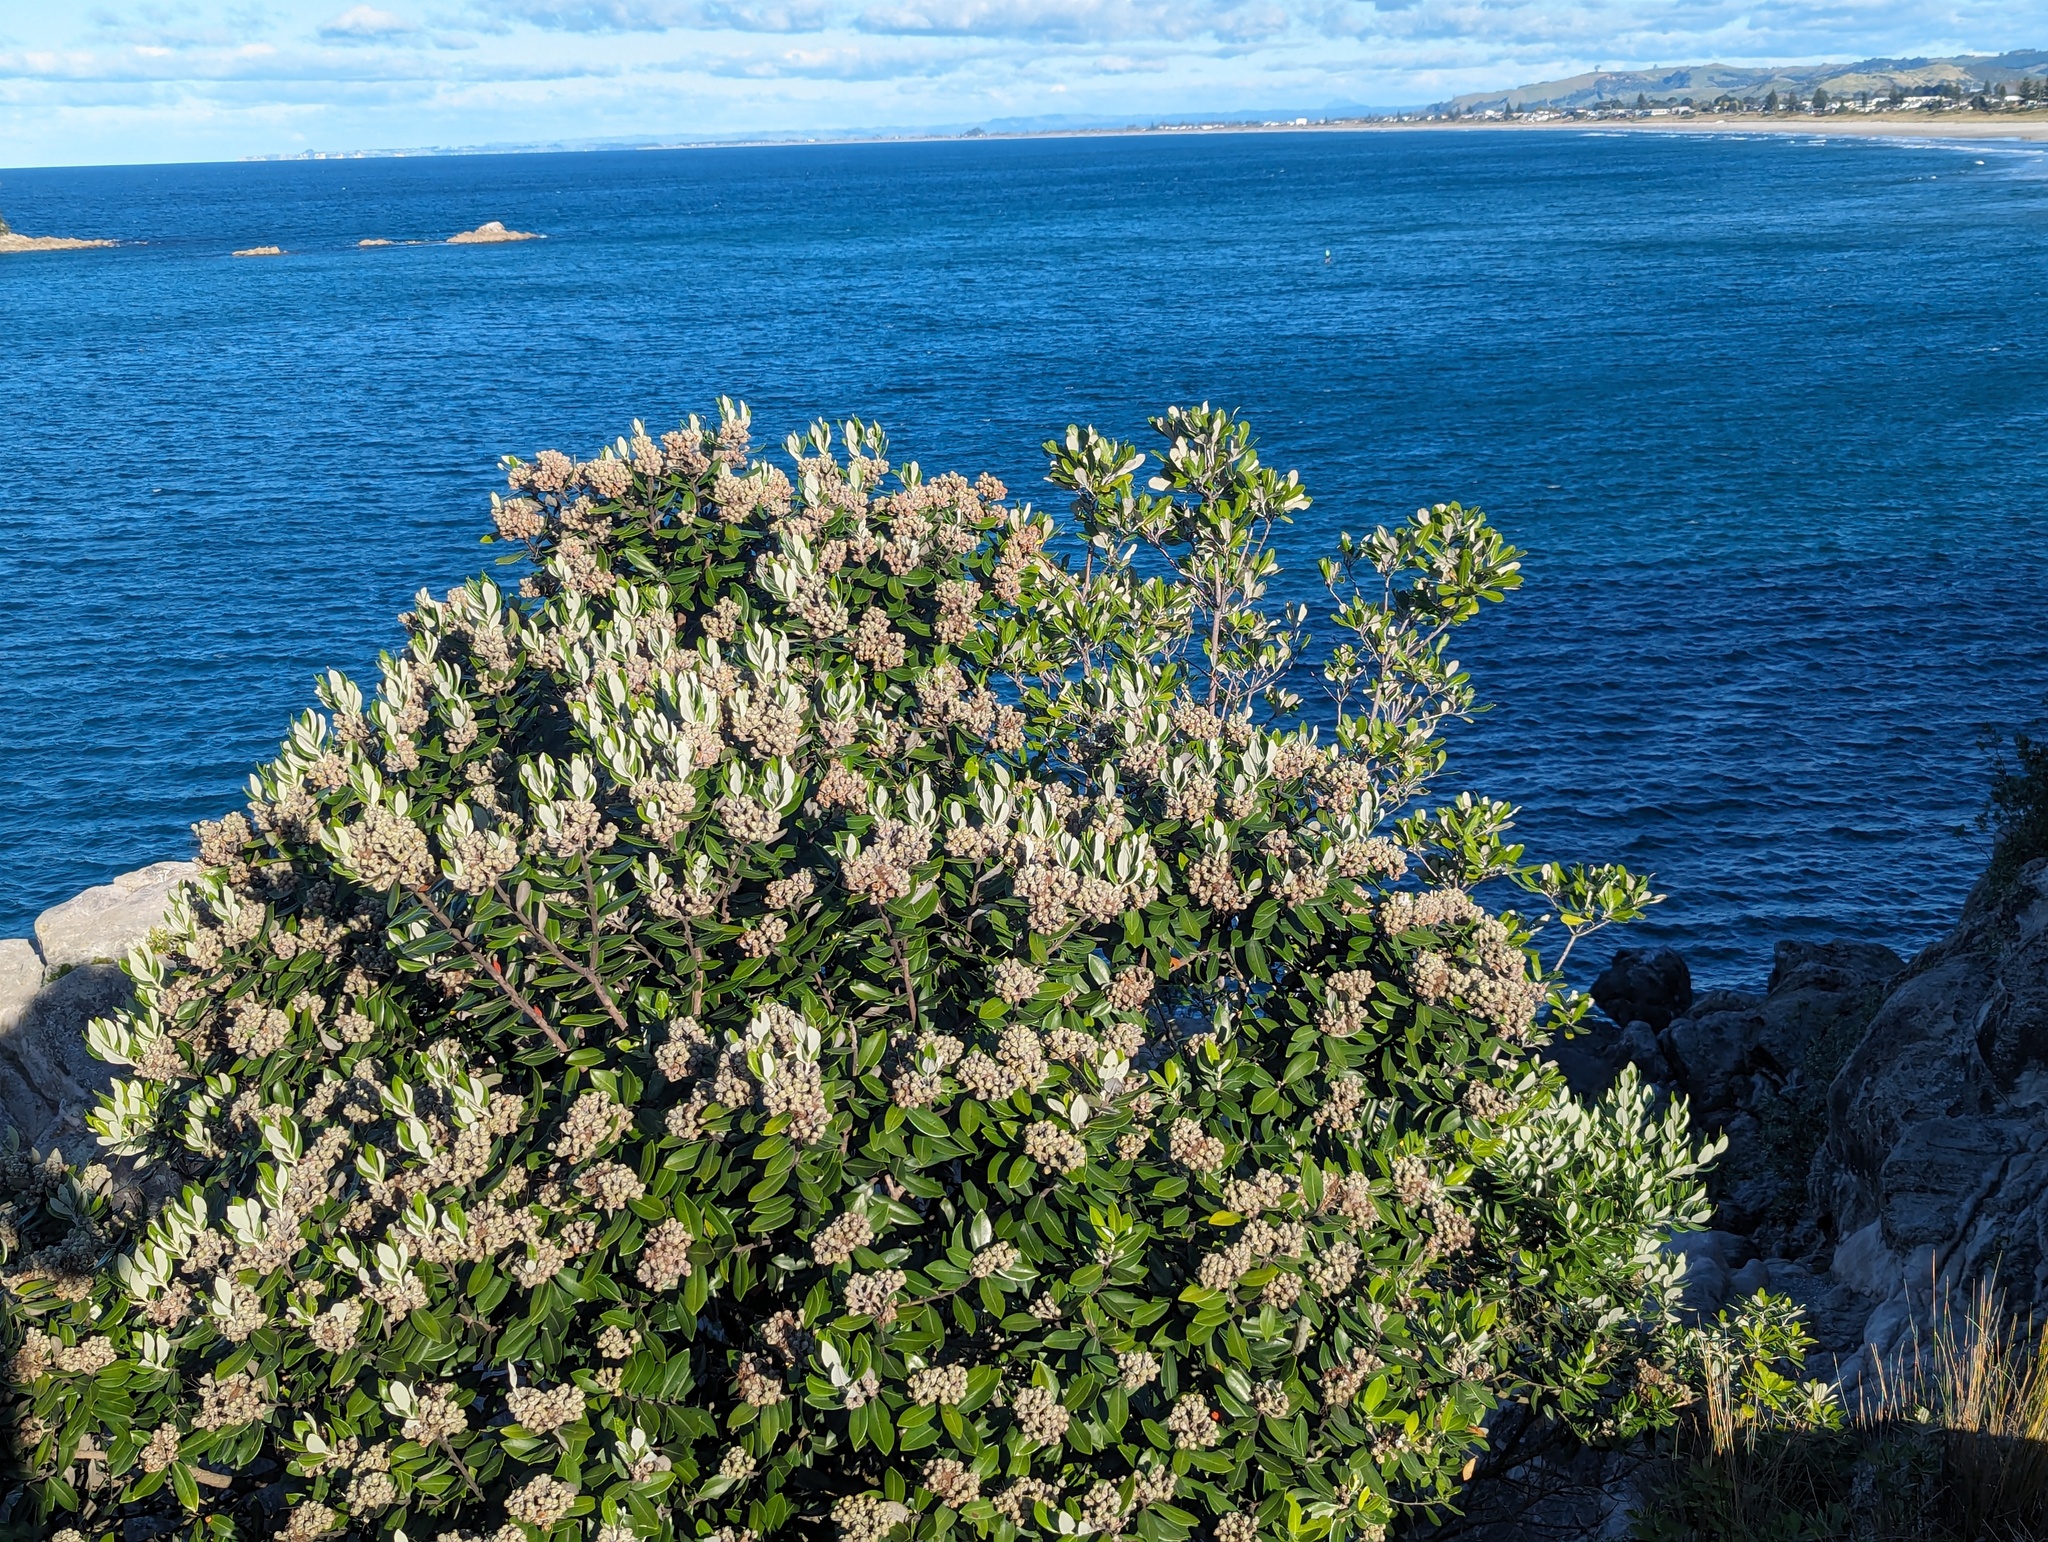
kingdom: Plantae
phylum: Tracheophyta
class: Magnoliopsida
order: Myrtales
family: Myrtaceae
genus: Metrosideros
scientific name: Metrosideros excelsa
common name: New zealand christmastree
